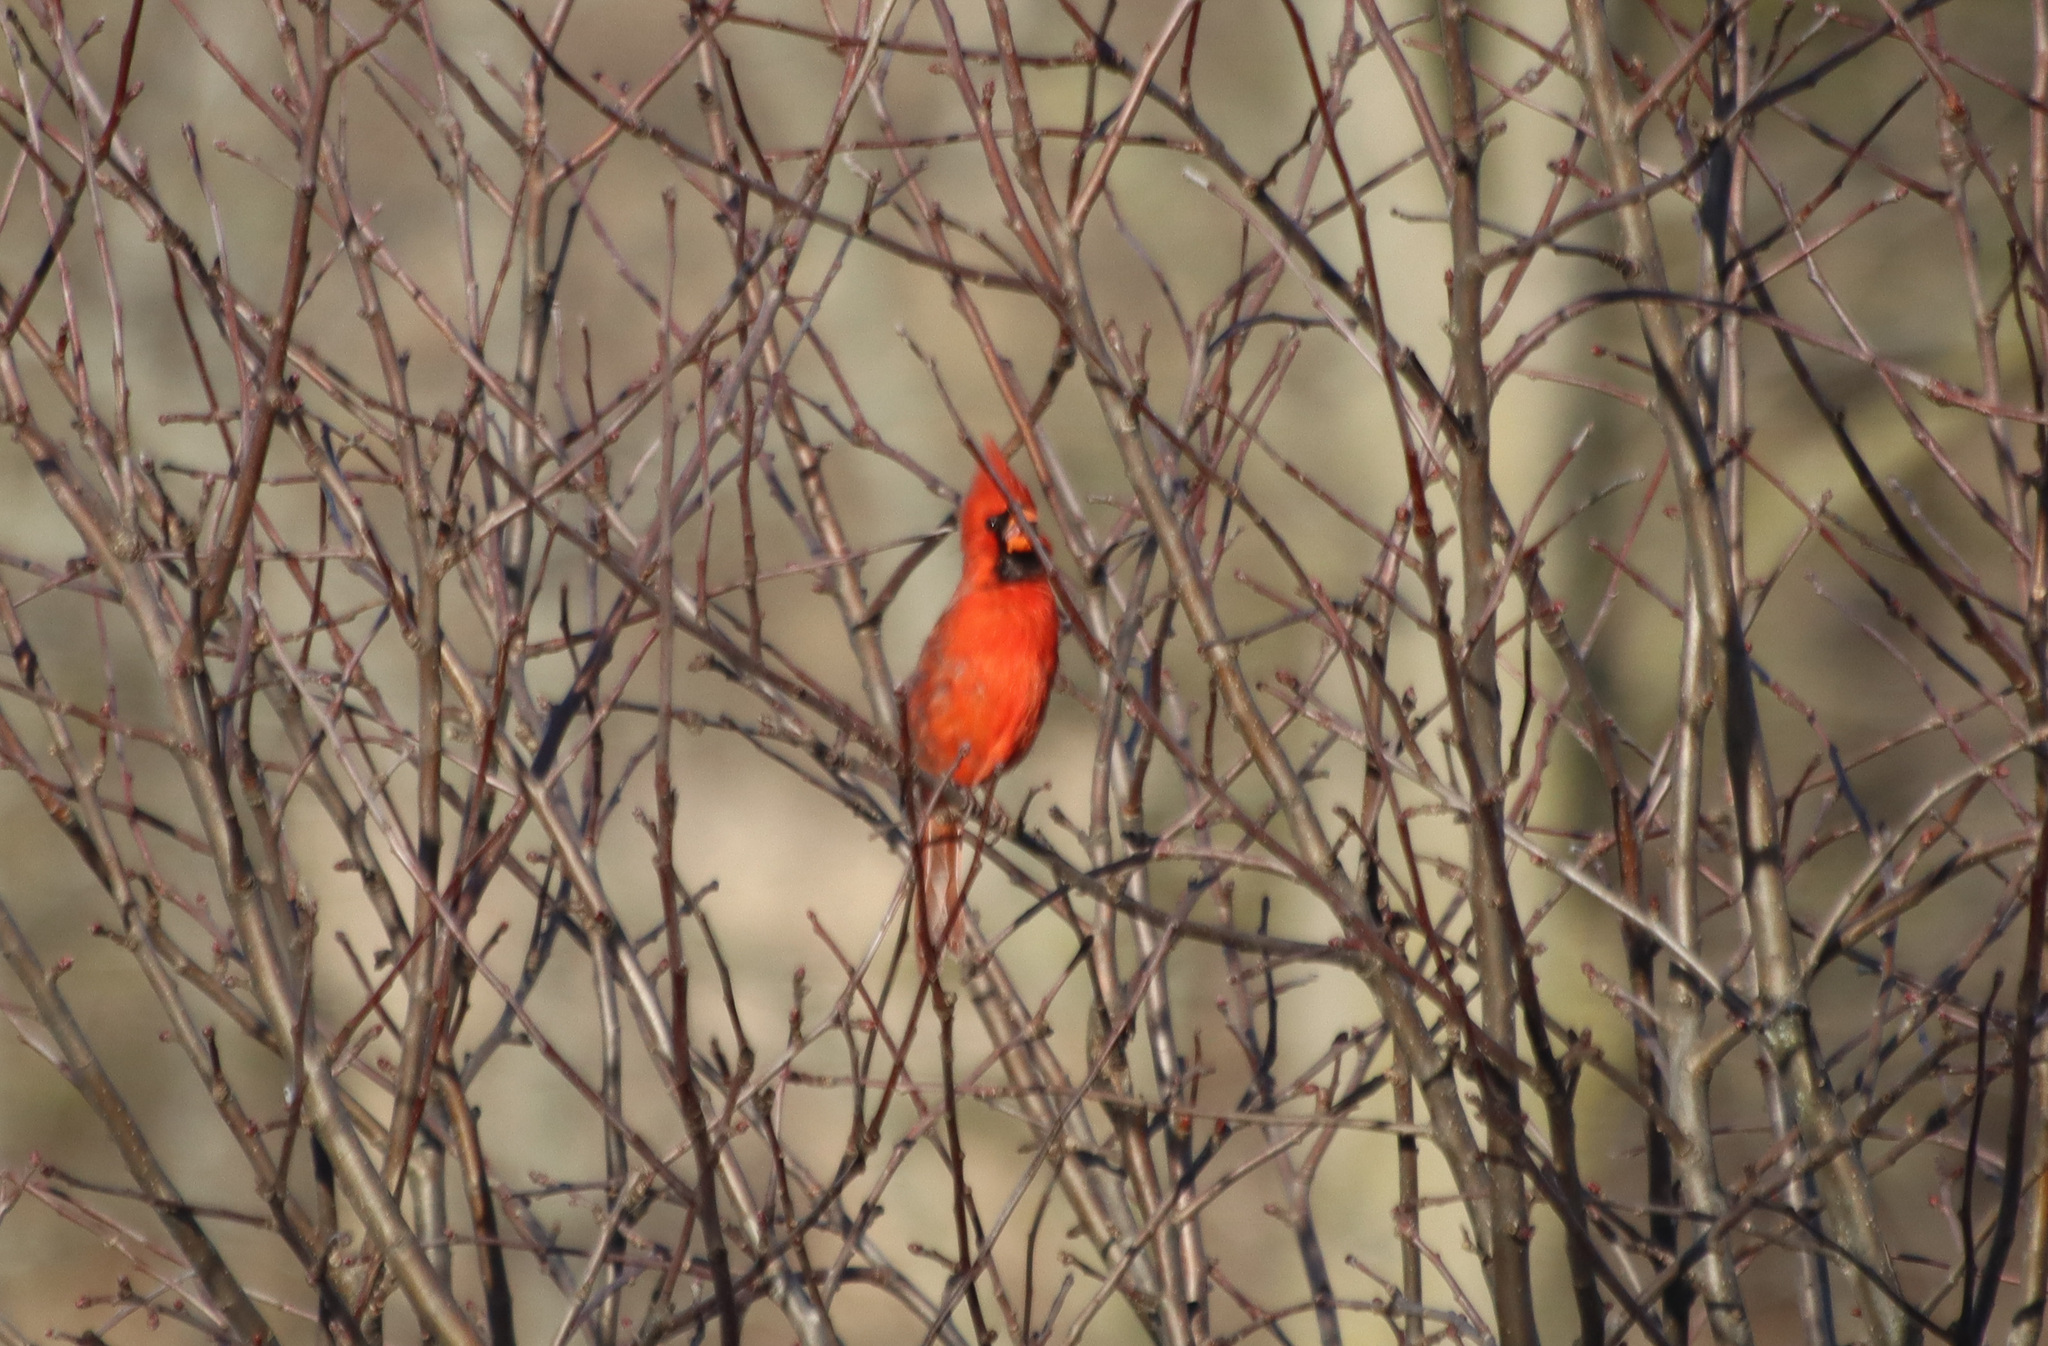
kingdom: Animalia
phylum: Chordata
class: Aves
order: Passeriformes
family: Cardinalidae
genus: Cardinalis
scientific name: Cardinalis cardinalis
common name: Northern cardinal
